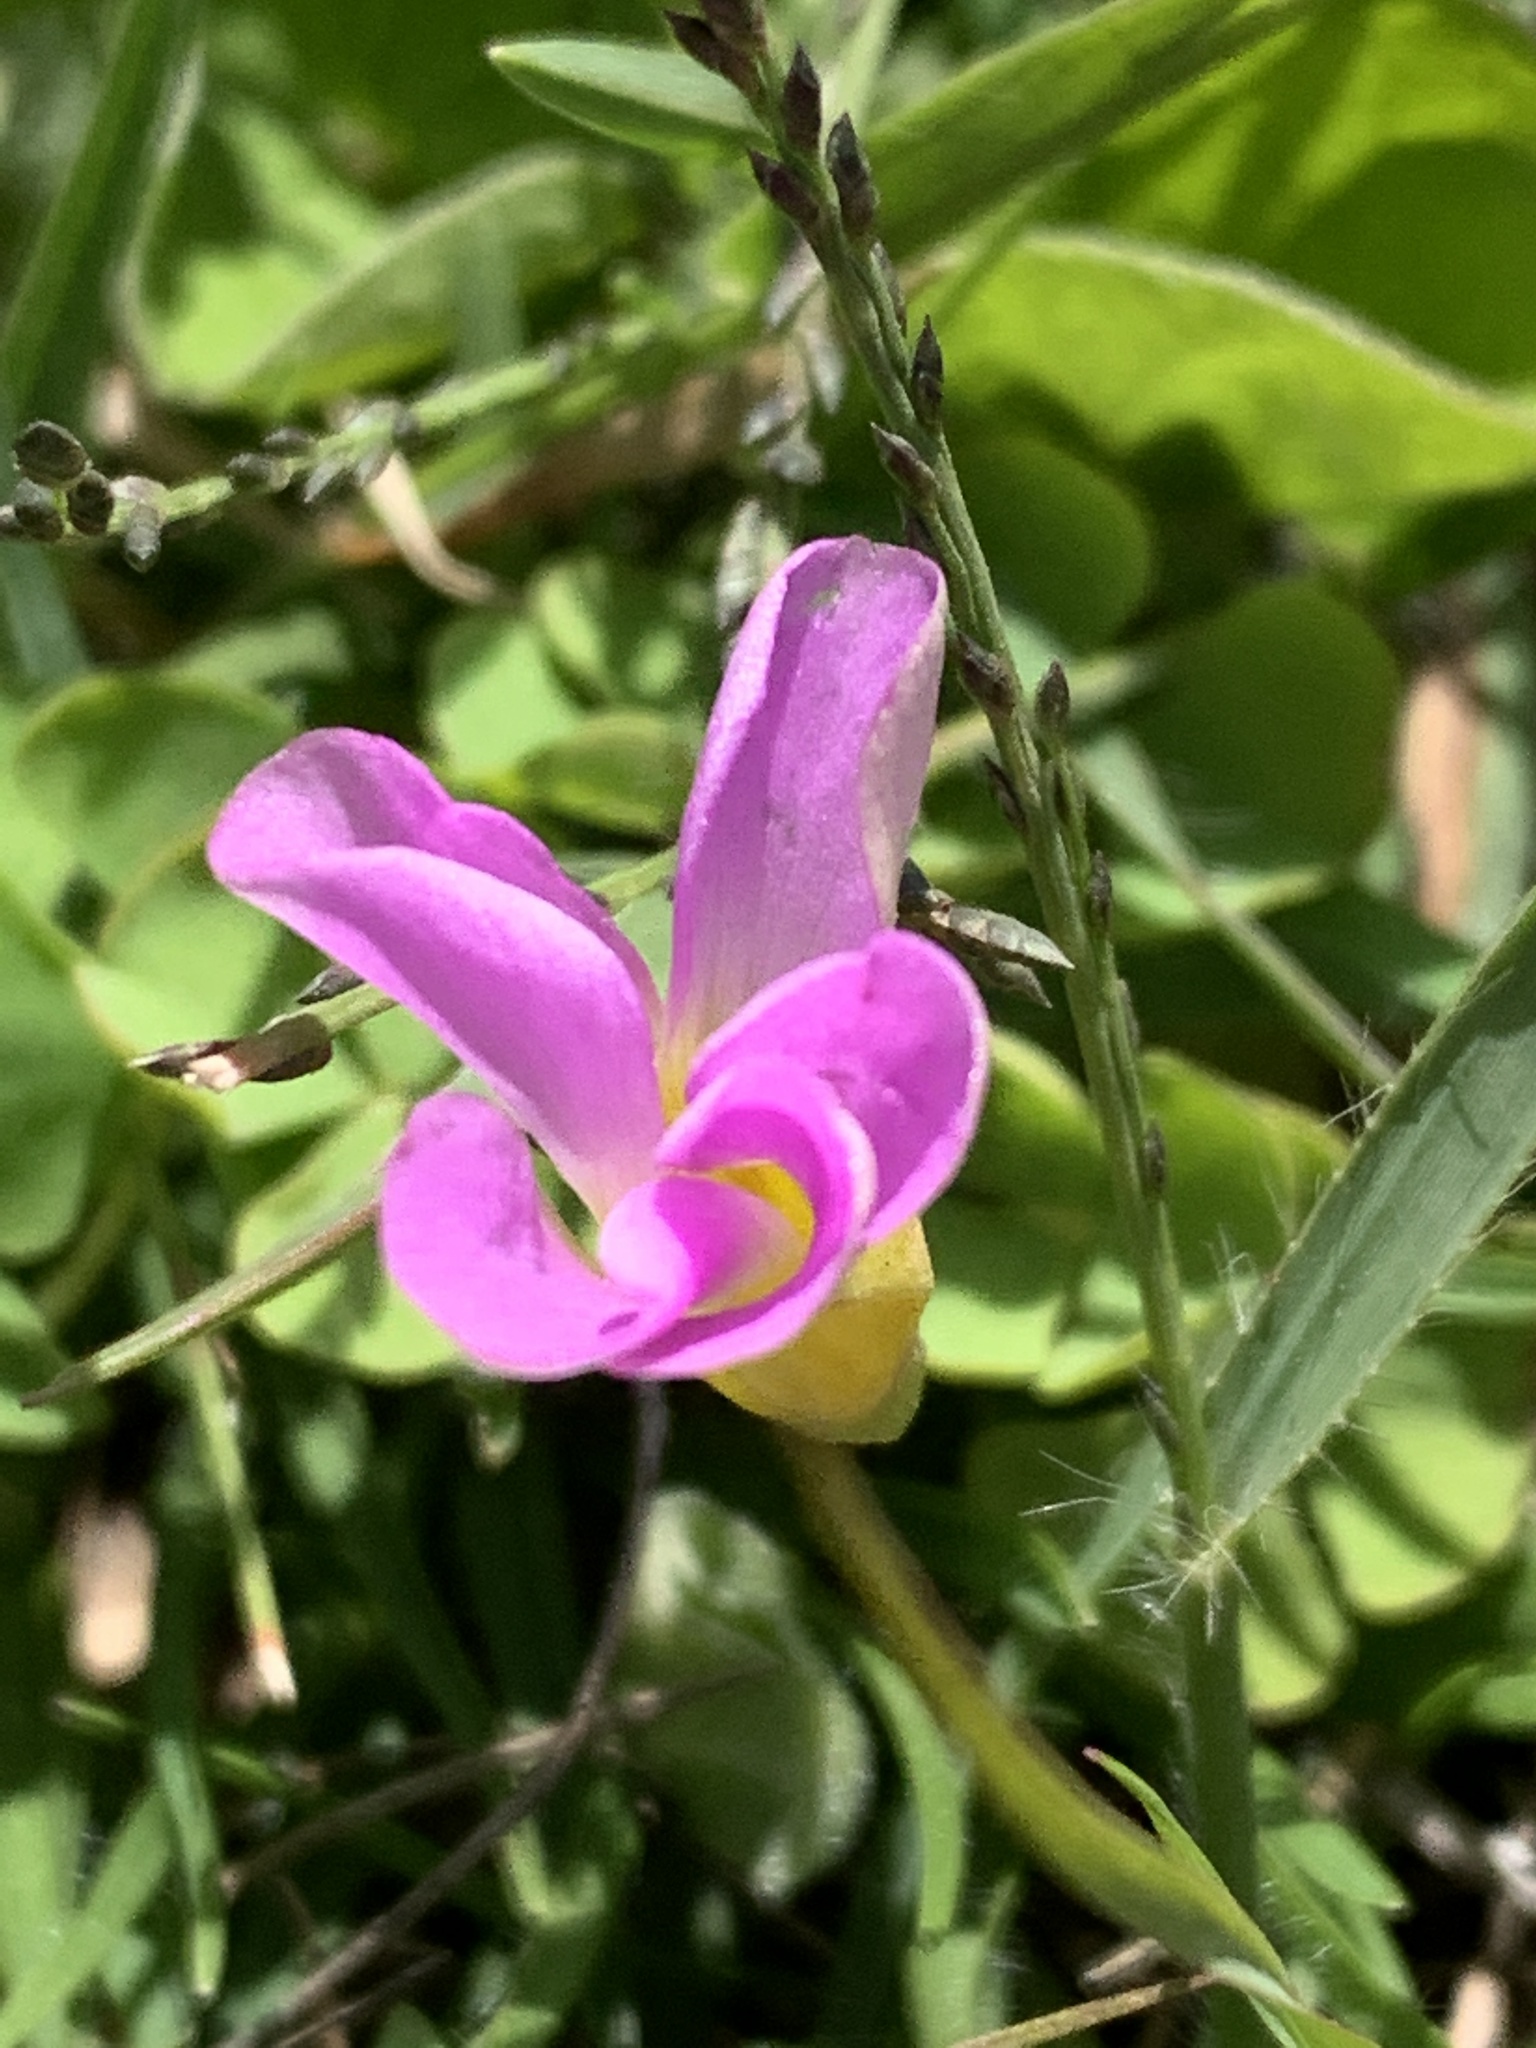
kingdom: Plantae
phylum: Tracheophyta
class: Magnoliopsida
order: Oxalidales
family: Oxalidaceae
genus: Oxalis
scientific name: Oxalis obliquifolia
